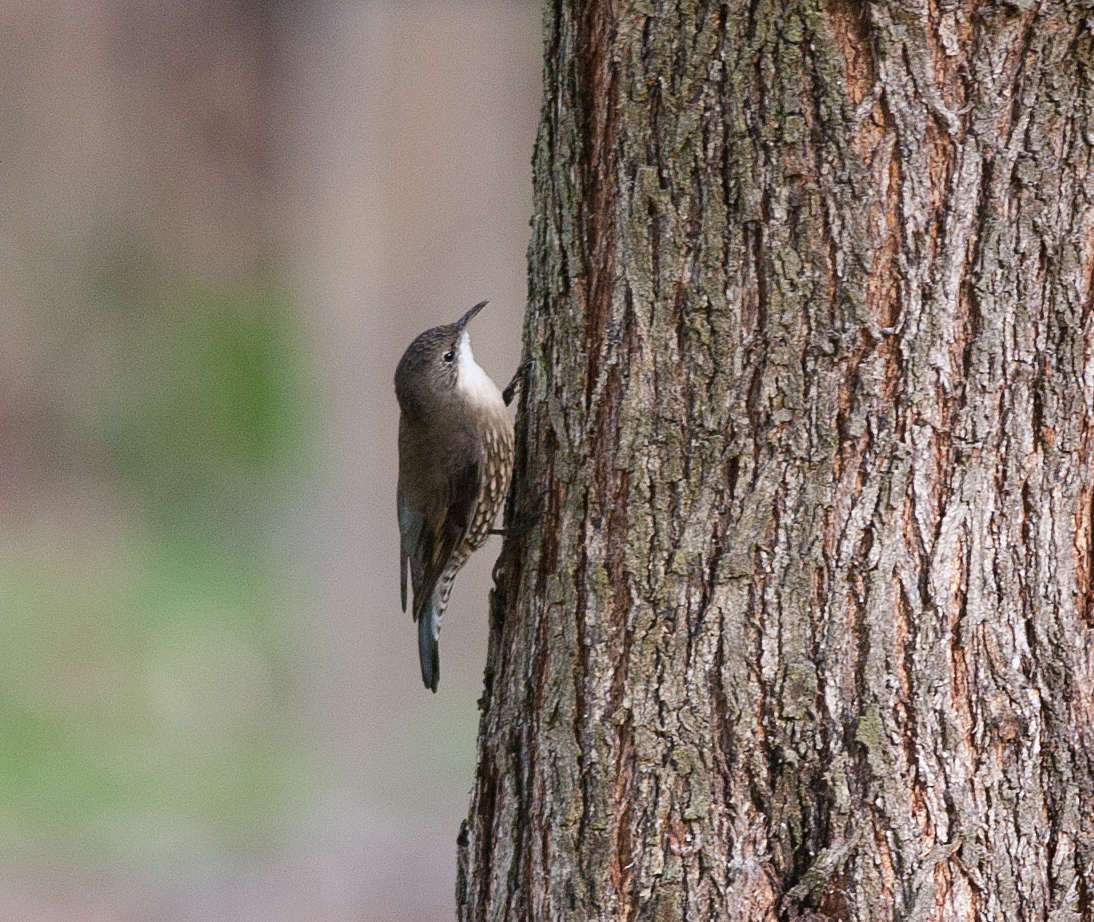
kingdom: Animalia
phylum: Chordata
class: Aves
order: Passeriformes
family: Climacteridae
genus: Cormobates
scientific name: Cormobates leucophaea
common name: White-throated treecreeper
